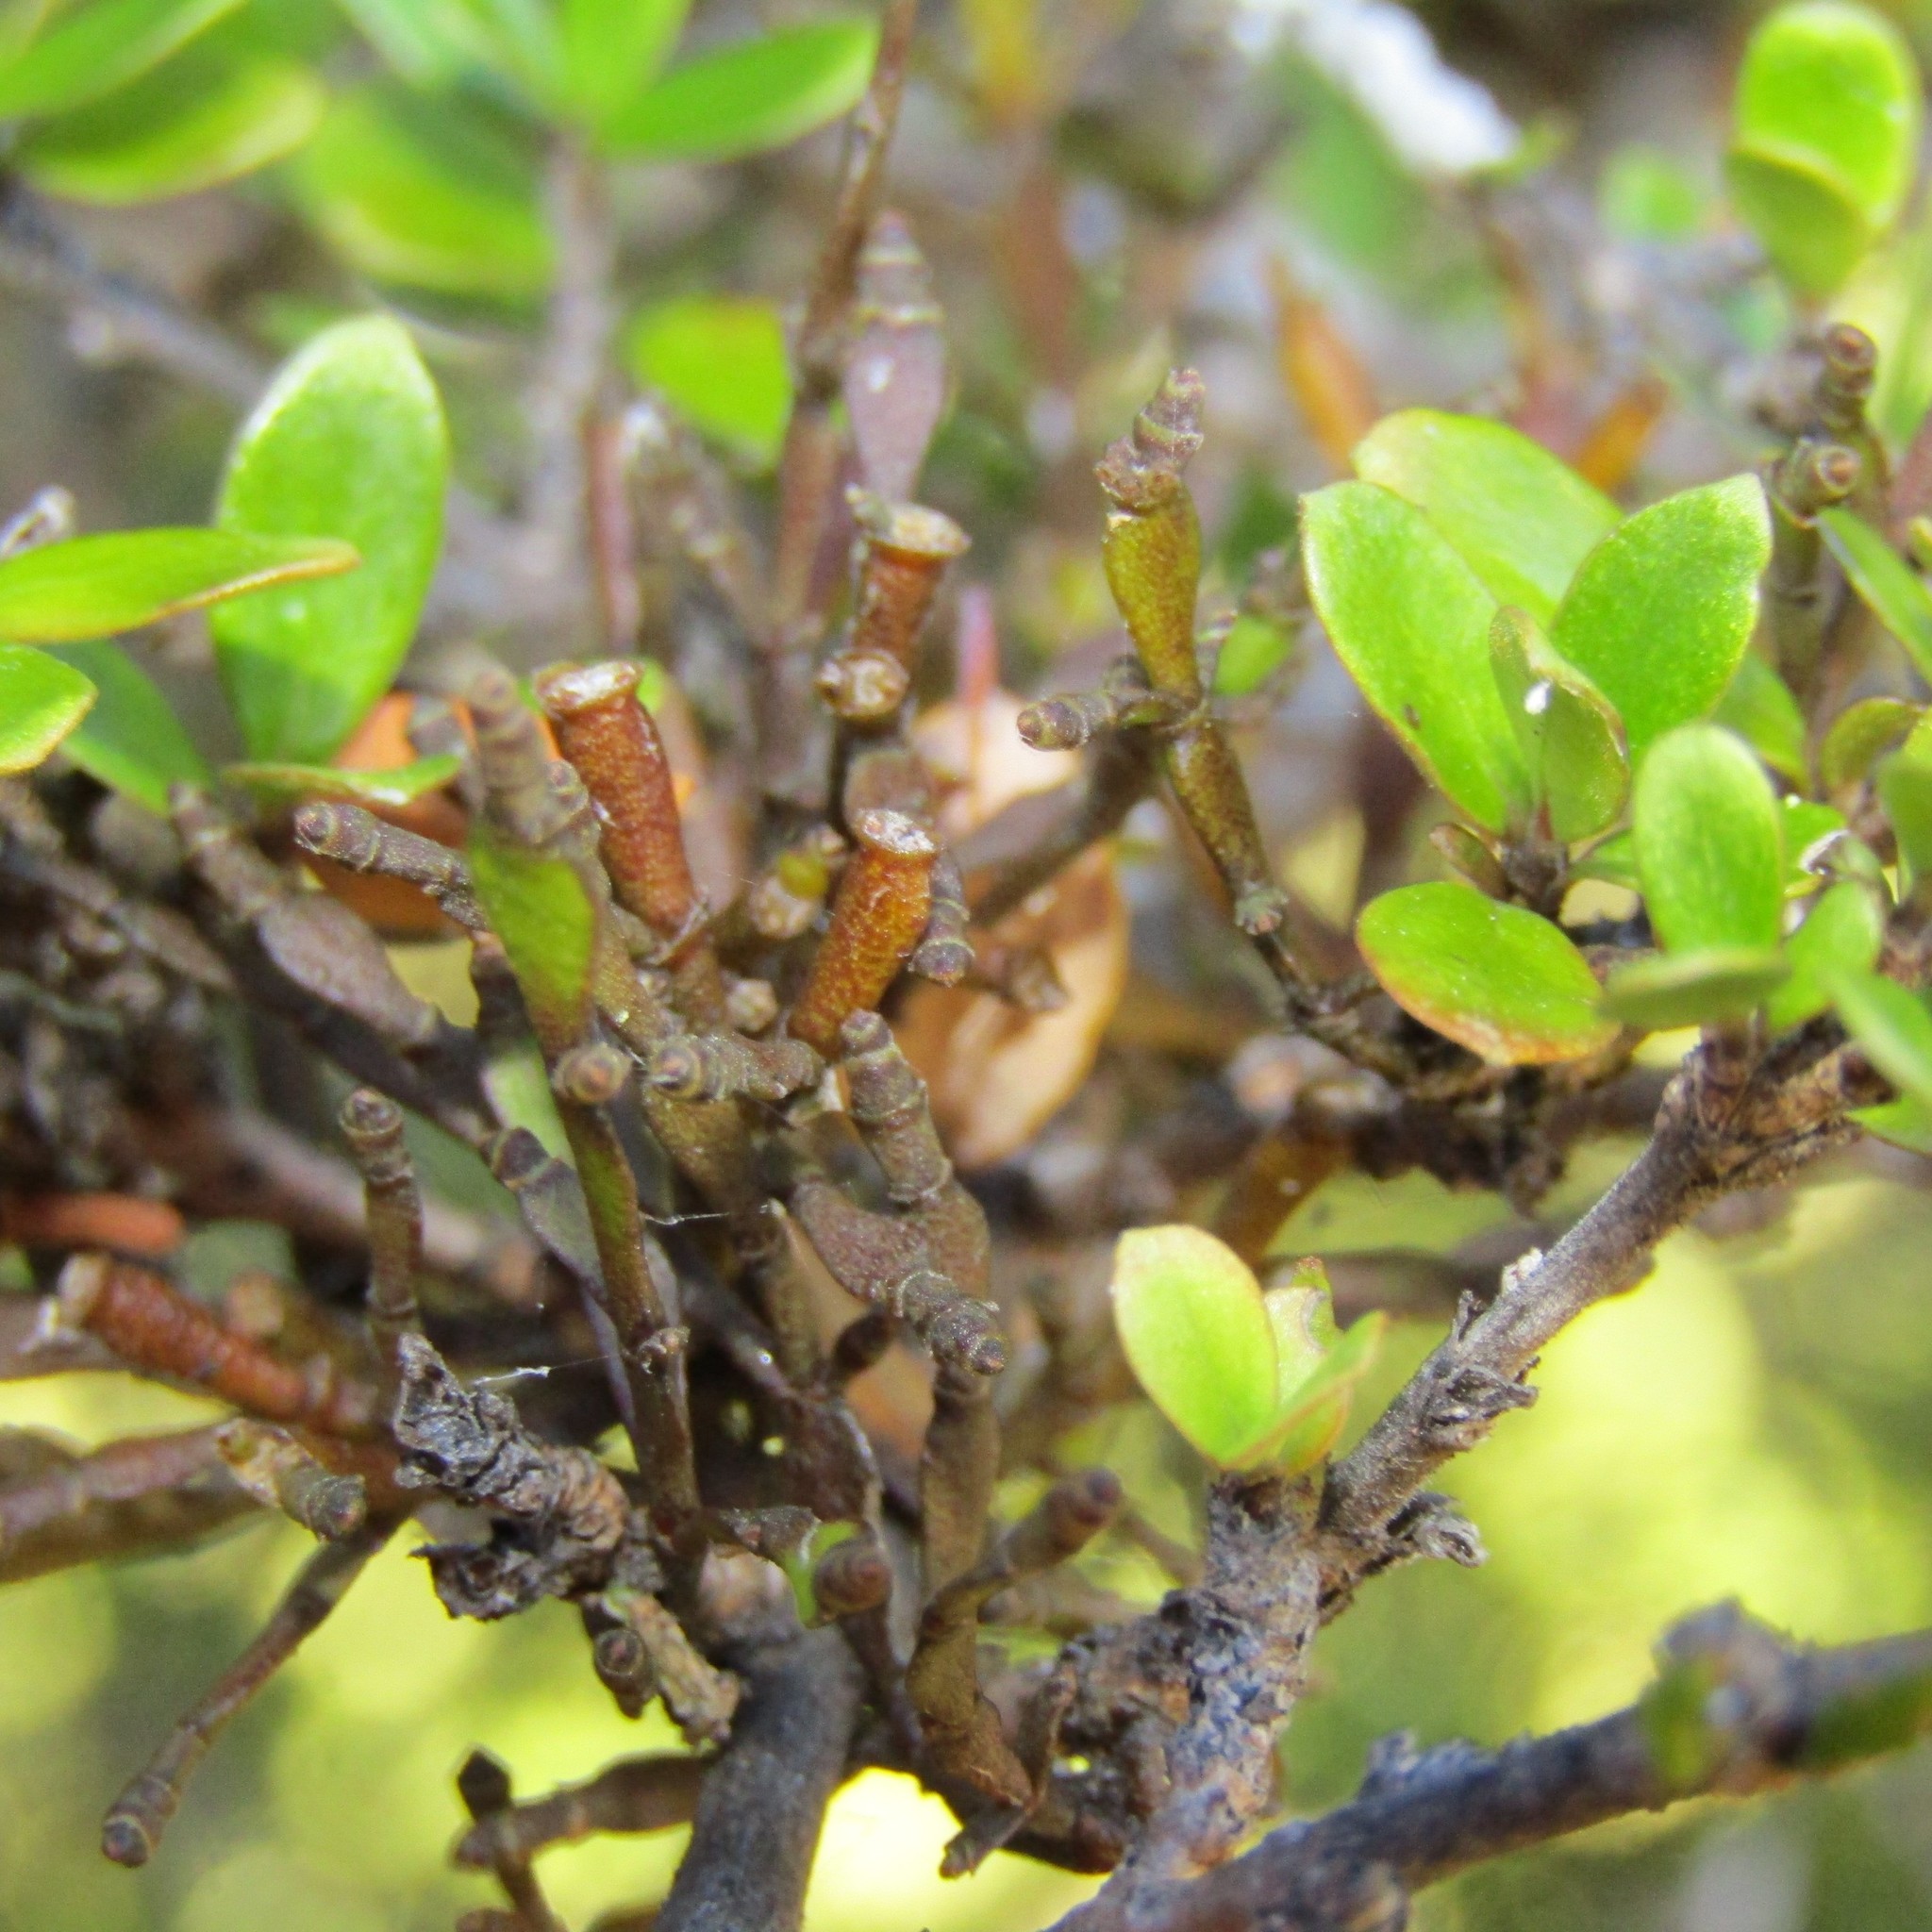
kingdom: Plantae
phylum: Tracheophyta
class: Magnoliopsida
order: Santalales
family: Viscaceae
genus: Korthalsella
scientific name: Korthalsella clavata
